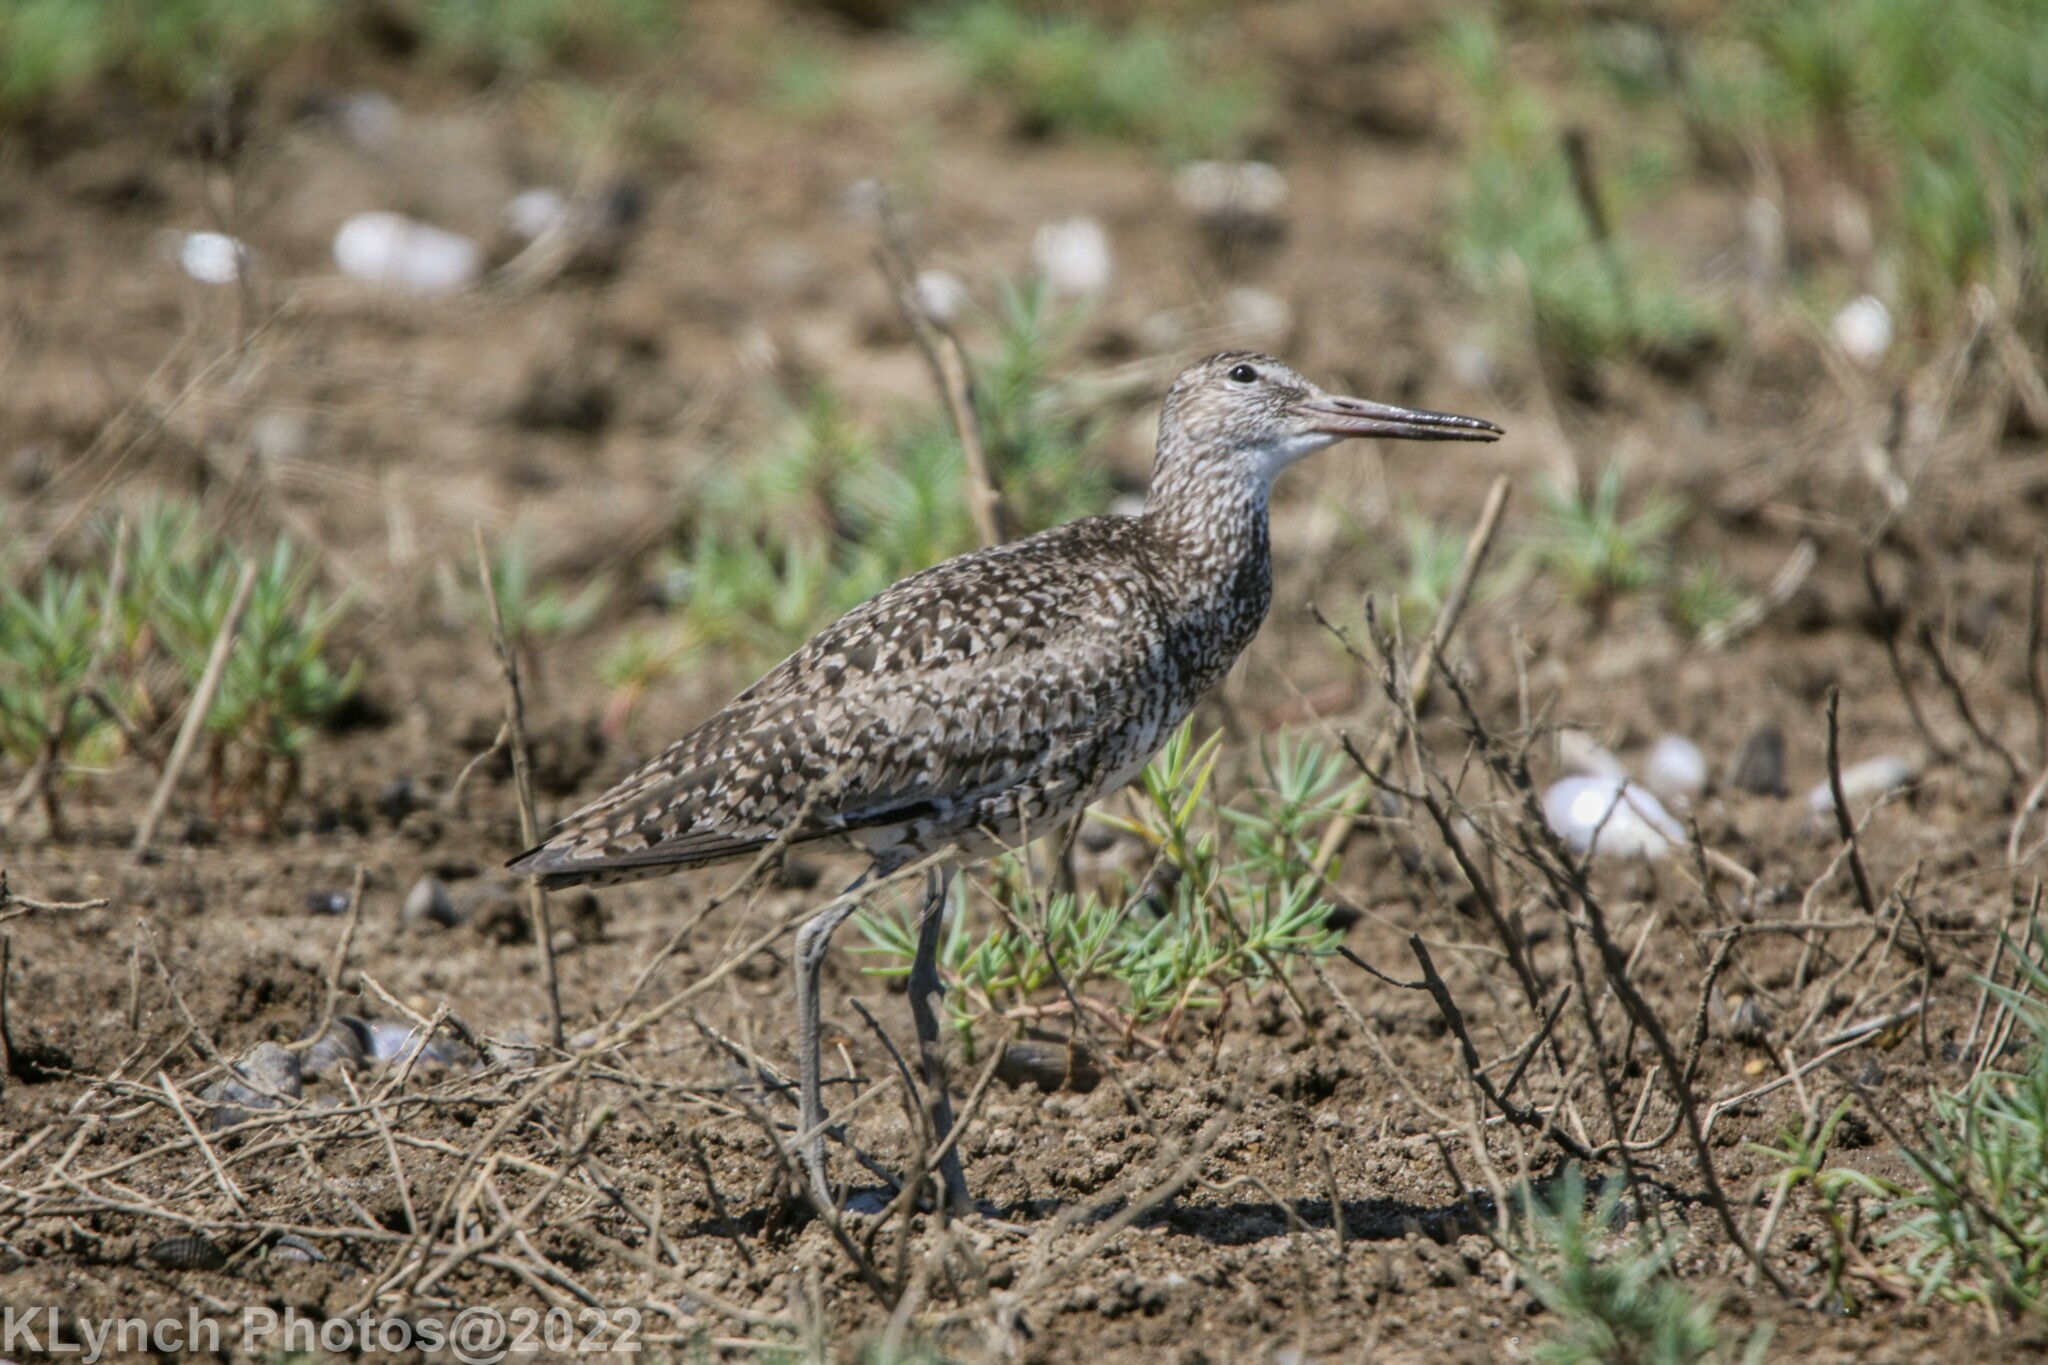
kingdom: Animalia
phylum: Chordata
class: Aves
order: Charadriiformes
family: Scolopacidae
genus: Tringa
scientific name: Tringa semipalmata
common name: Willet
